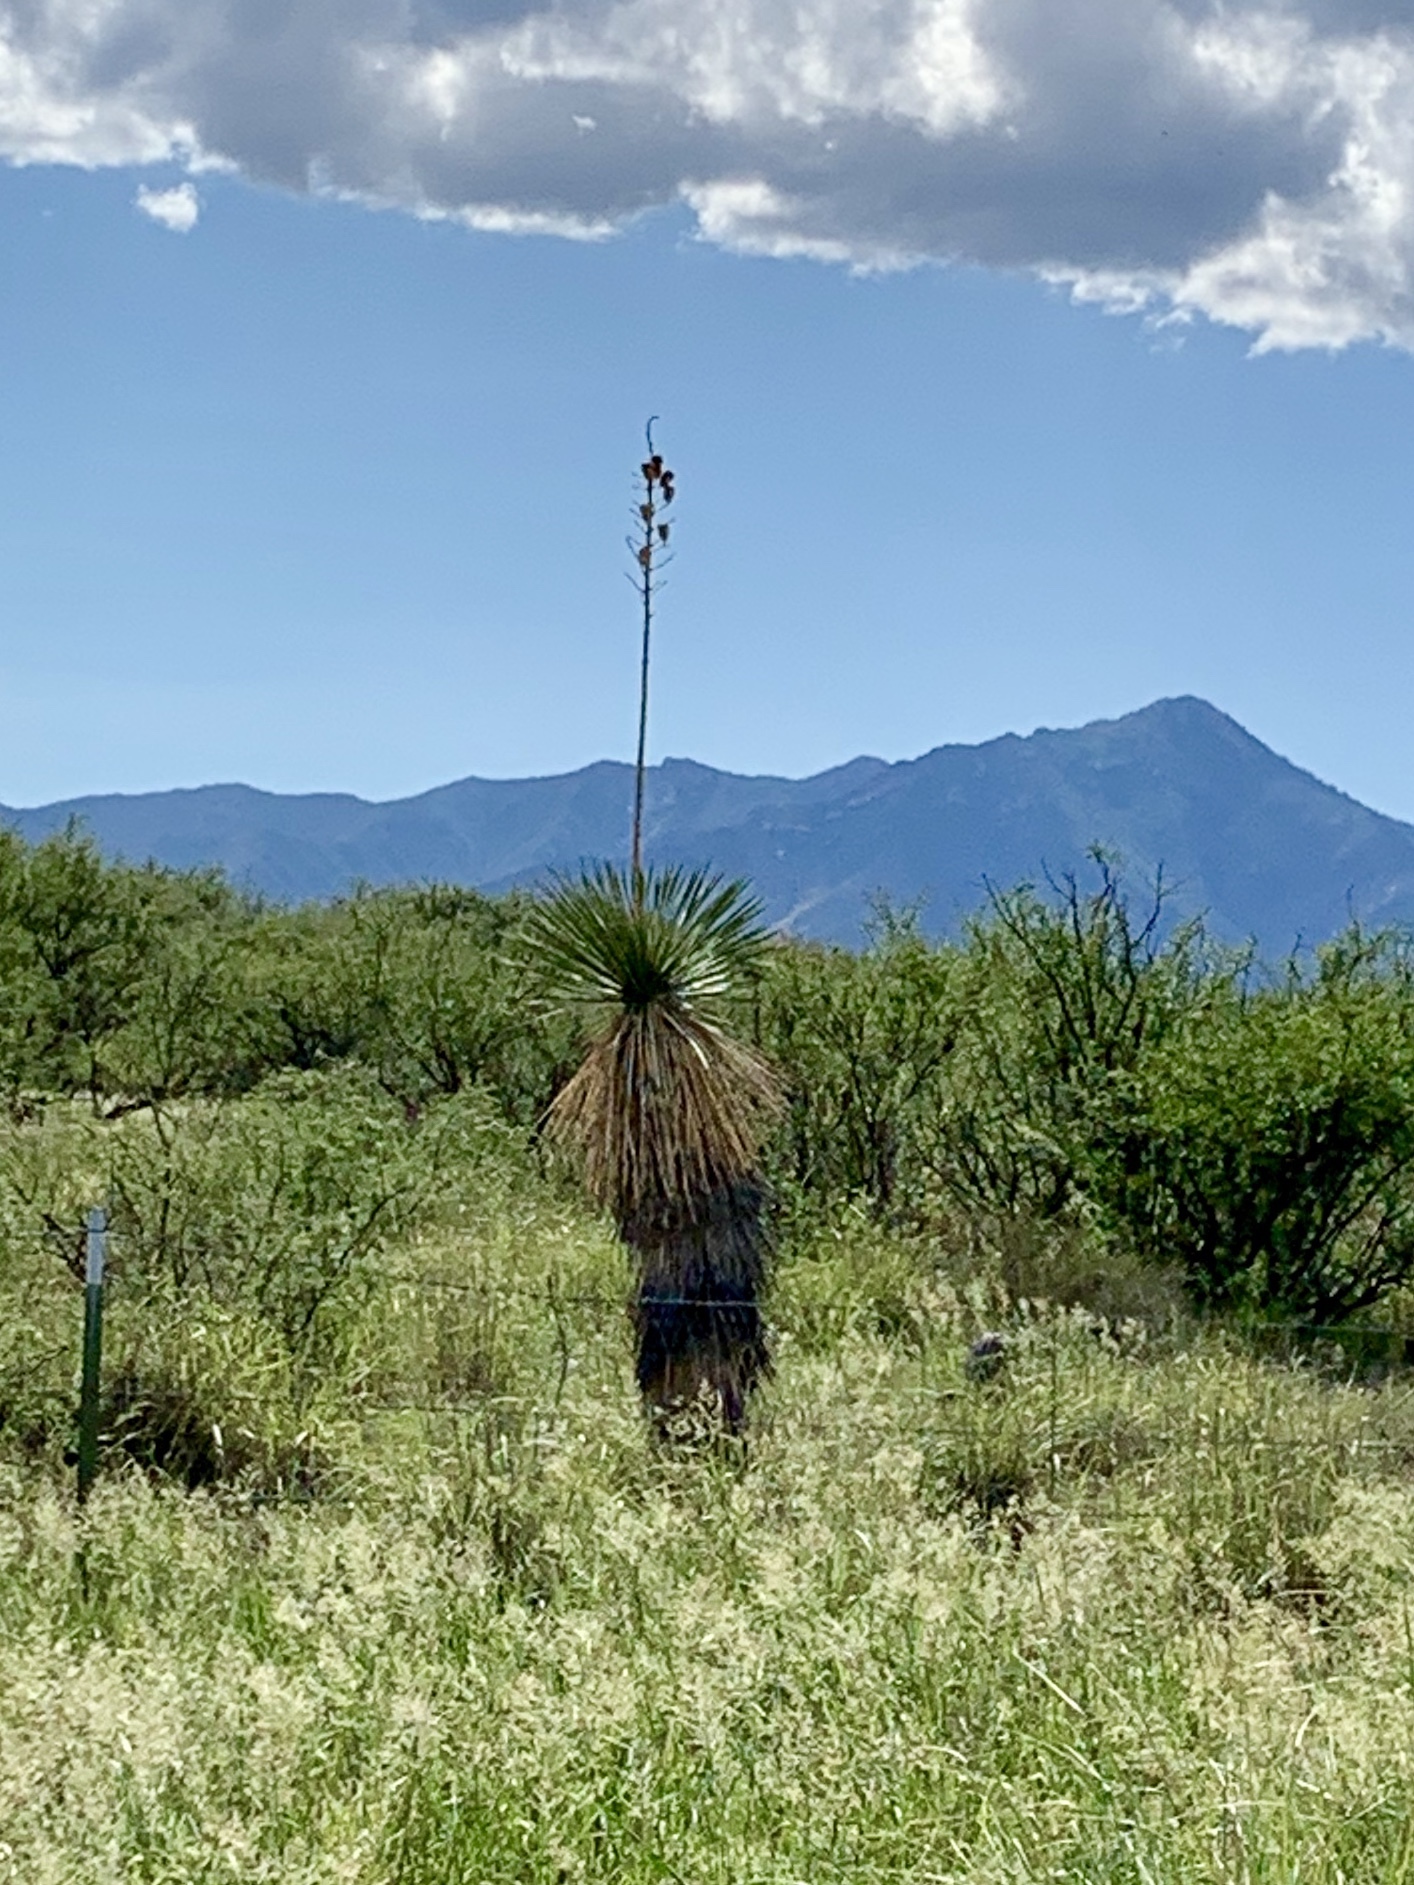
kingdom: Plantae
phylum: Tracheophyta
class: Liliopsida
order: Asparagales
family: Asparagaceae
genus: Yucca
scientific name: Yucca elata
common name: Palmella
